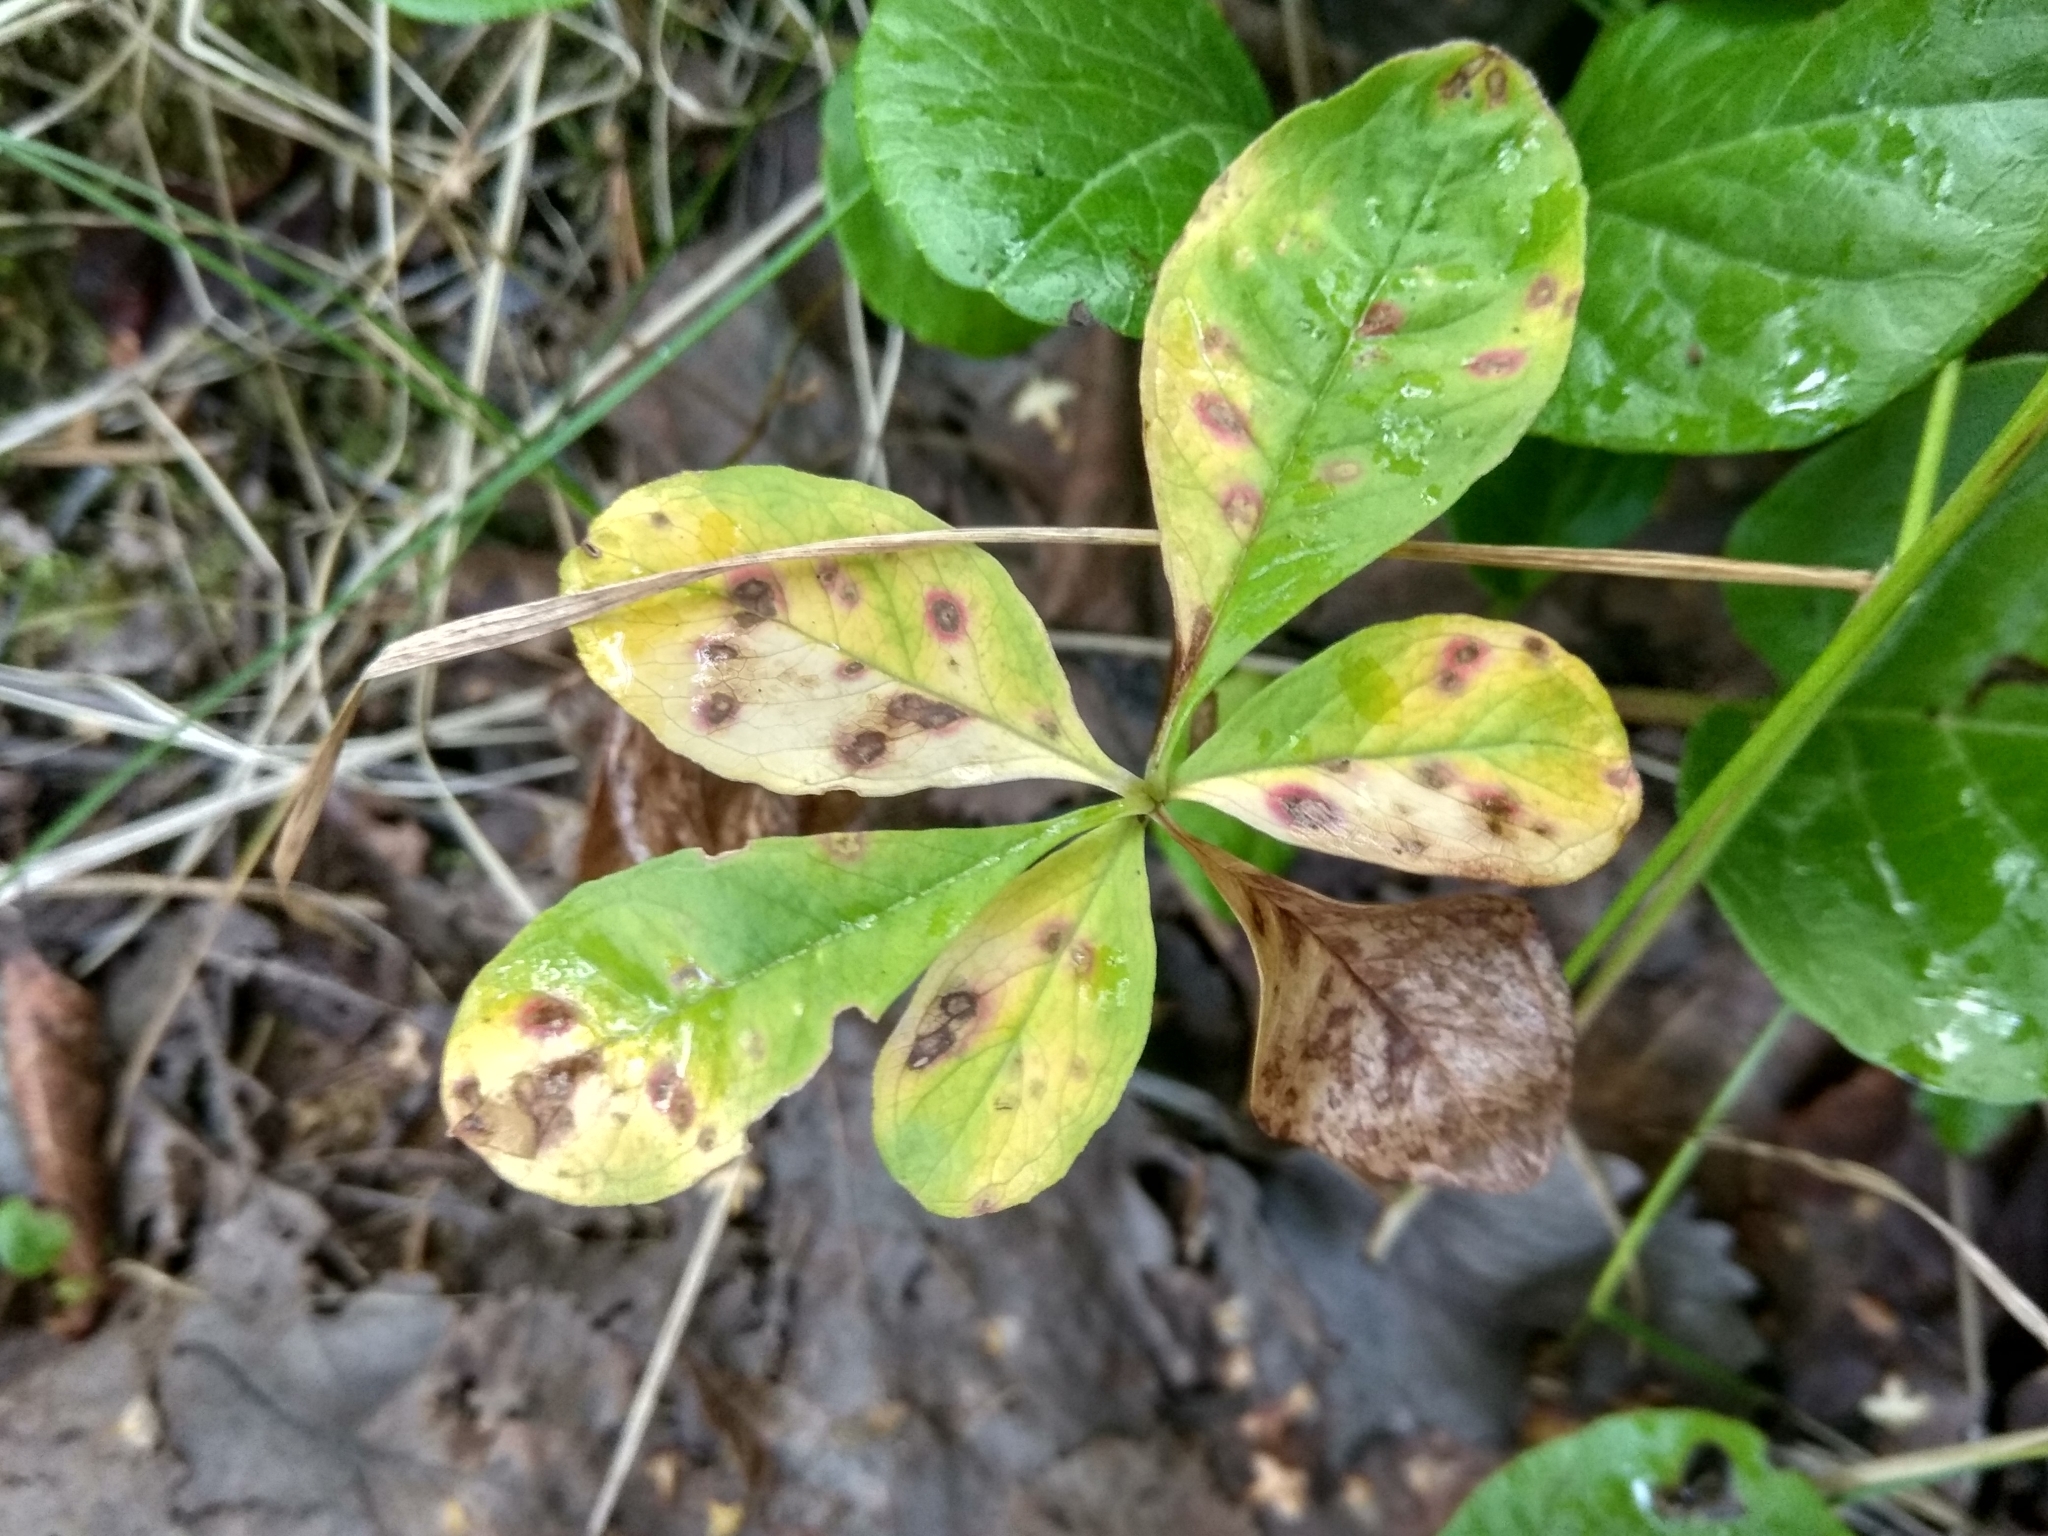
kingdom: Plantae
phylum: Tracheophyta
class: Magnoliopsida
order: Ericales
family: Primulaceae
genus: Lysimachia
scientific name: Lysimachia europaea
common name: Arctic starflower
